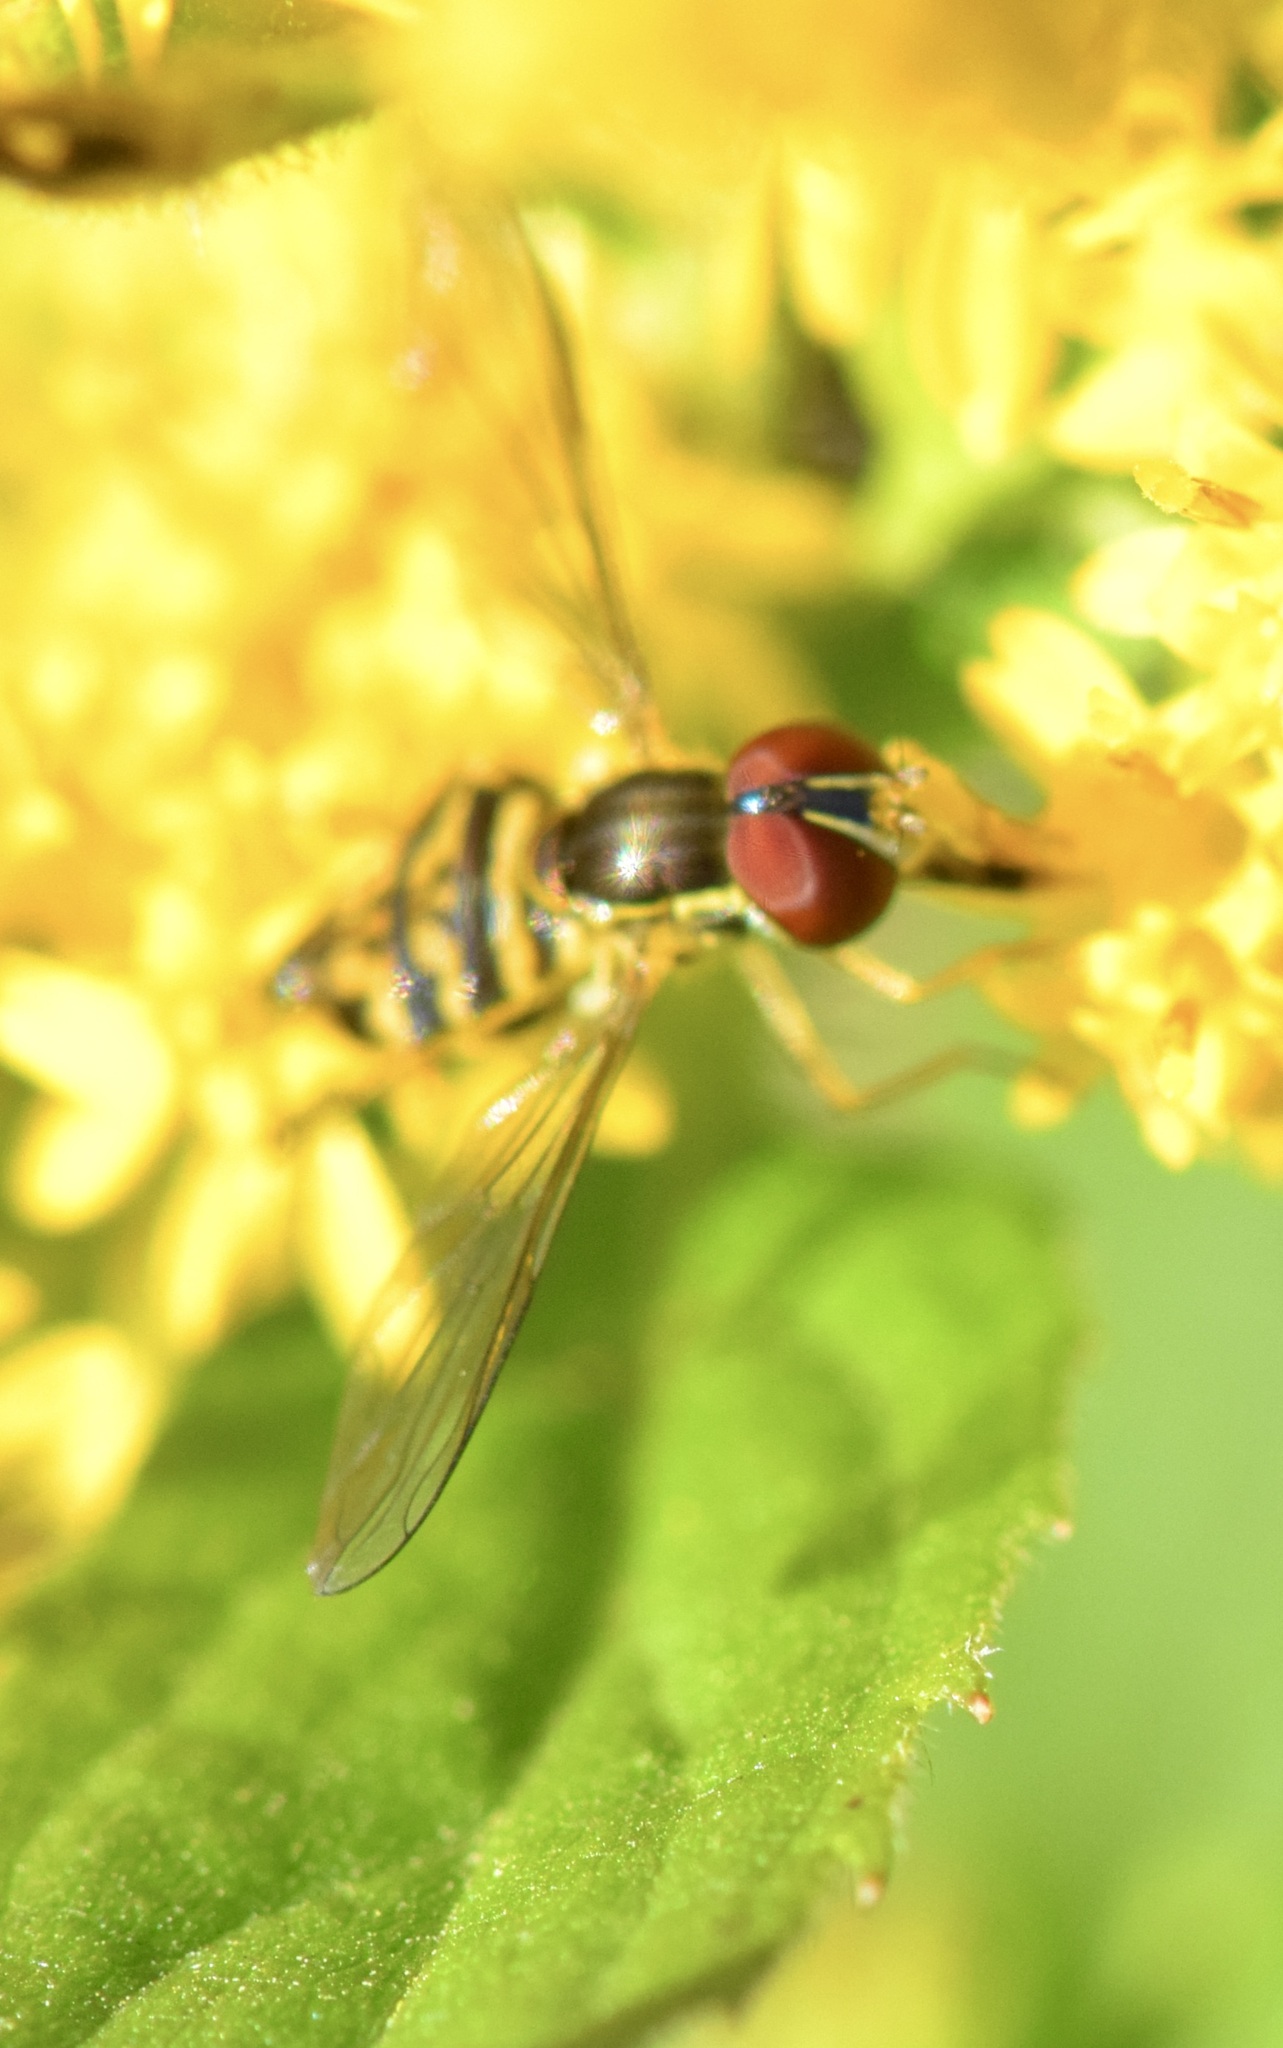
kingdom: Animalia
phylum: Arthropoda
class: Insecta
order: Diptera
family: Syrphidae
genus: Toxomerus
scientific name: Toxomerus geminatus
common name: Eastern calligrapher
